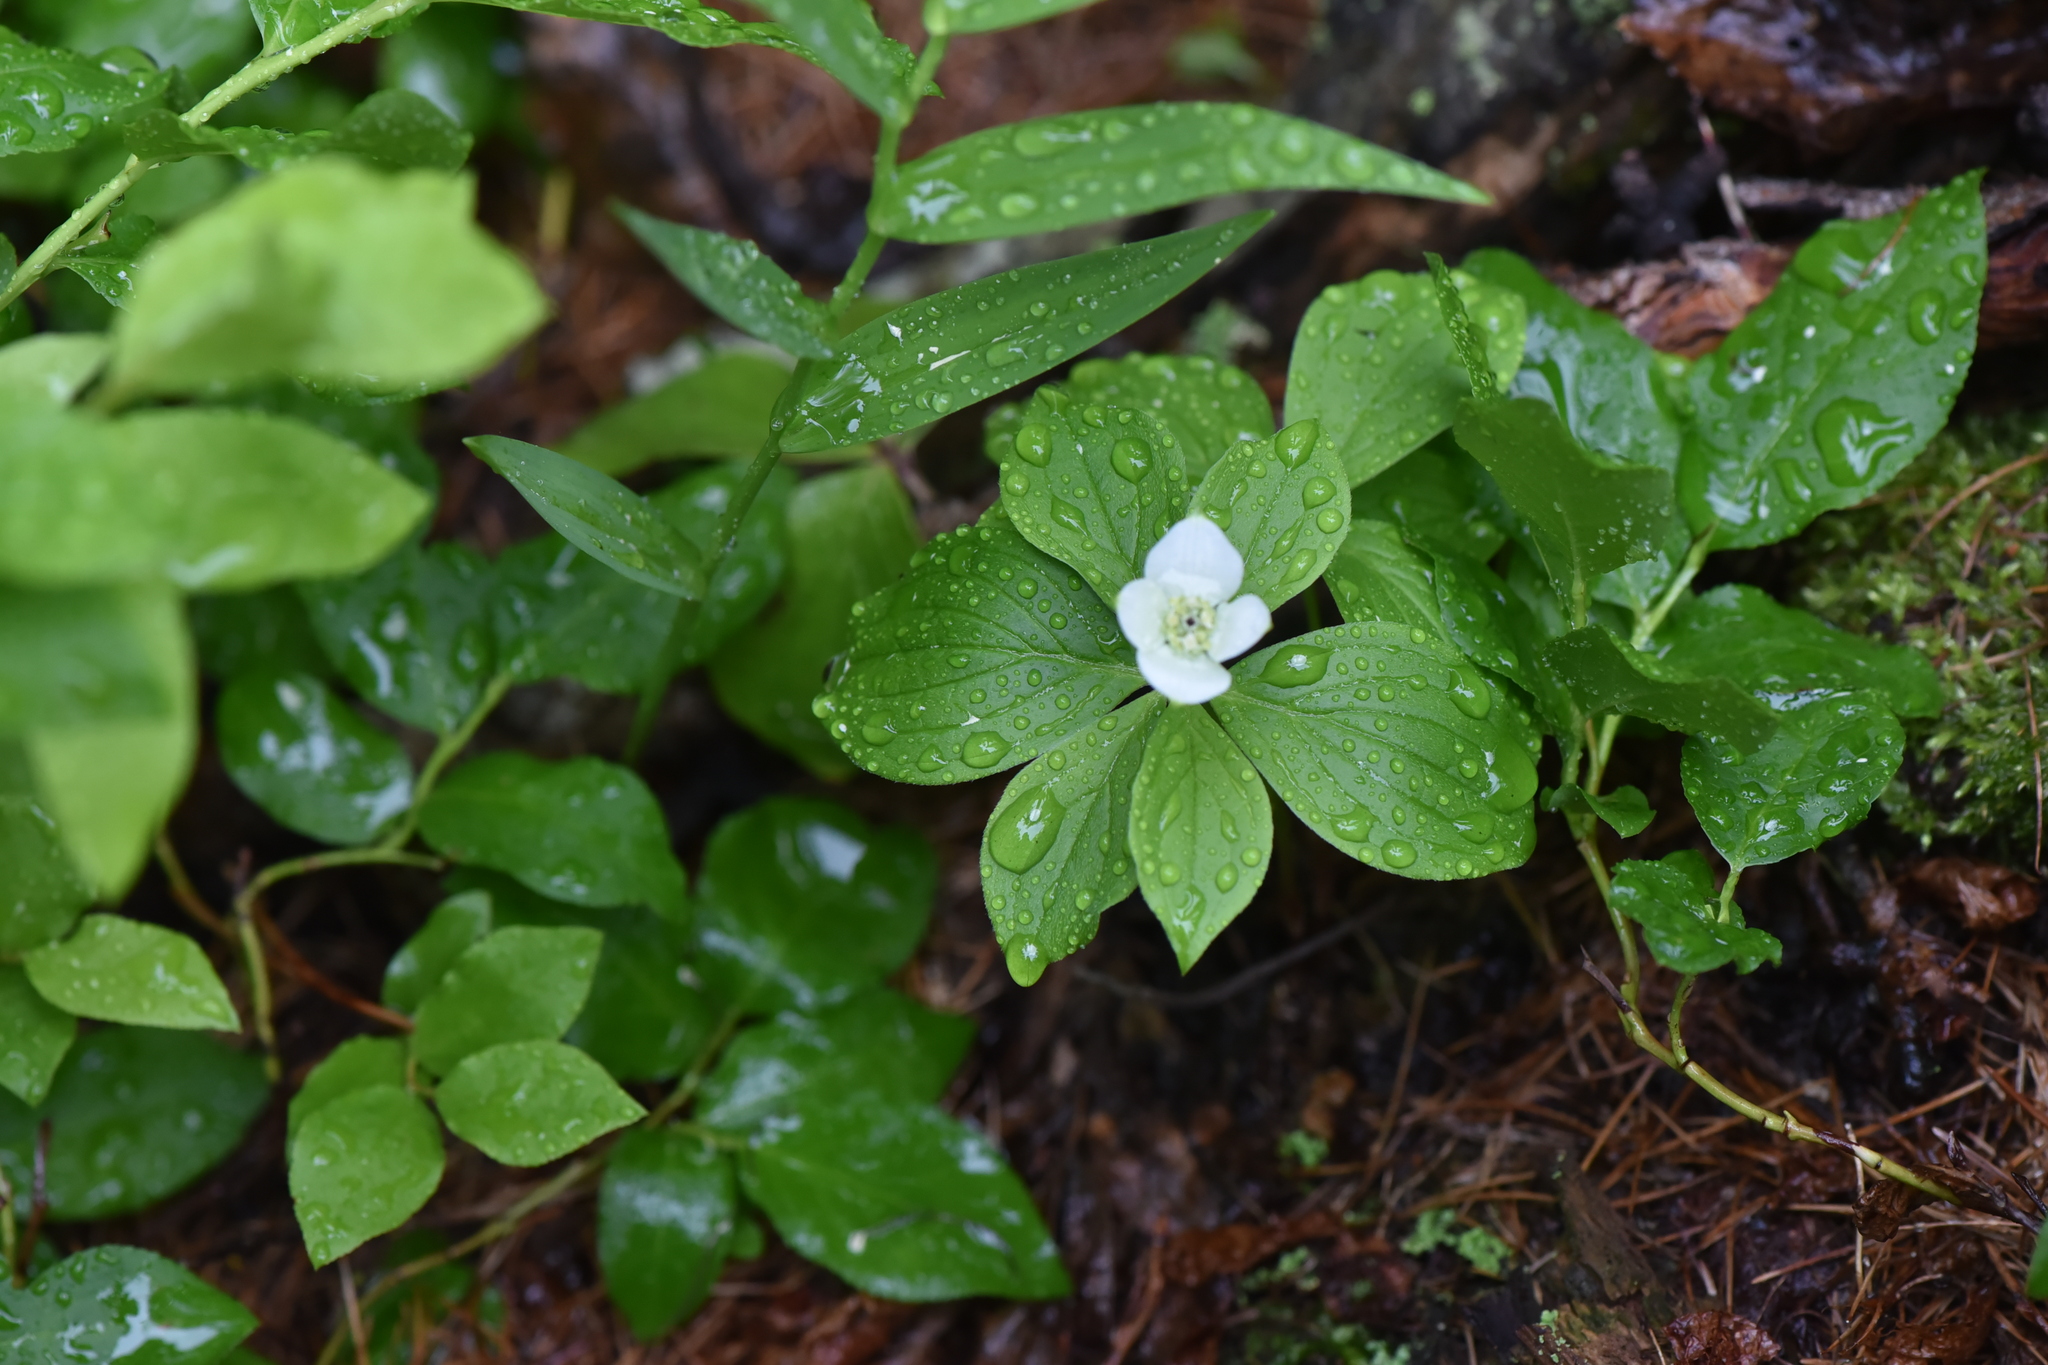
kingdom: Plantae
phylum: Tracheophyta
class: Magnoliopsida
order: Cornales
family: Cornaceae
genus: Cornus
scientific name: Cornus canadensis
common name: Creeping dogwood
